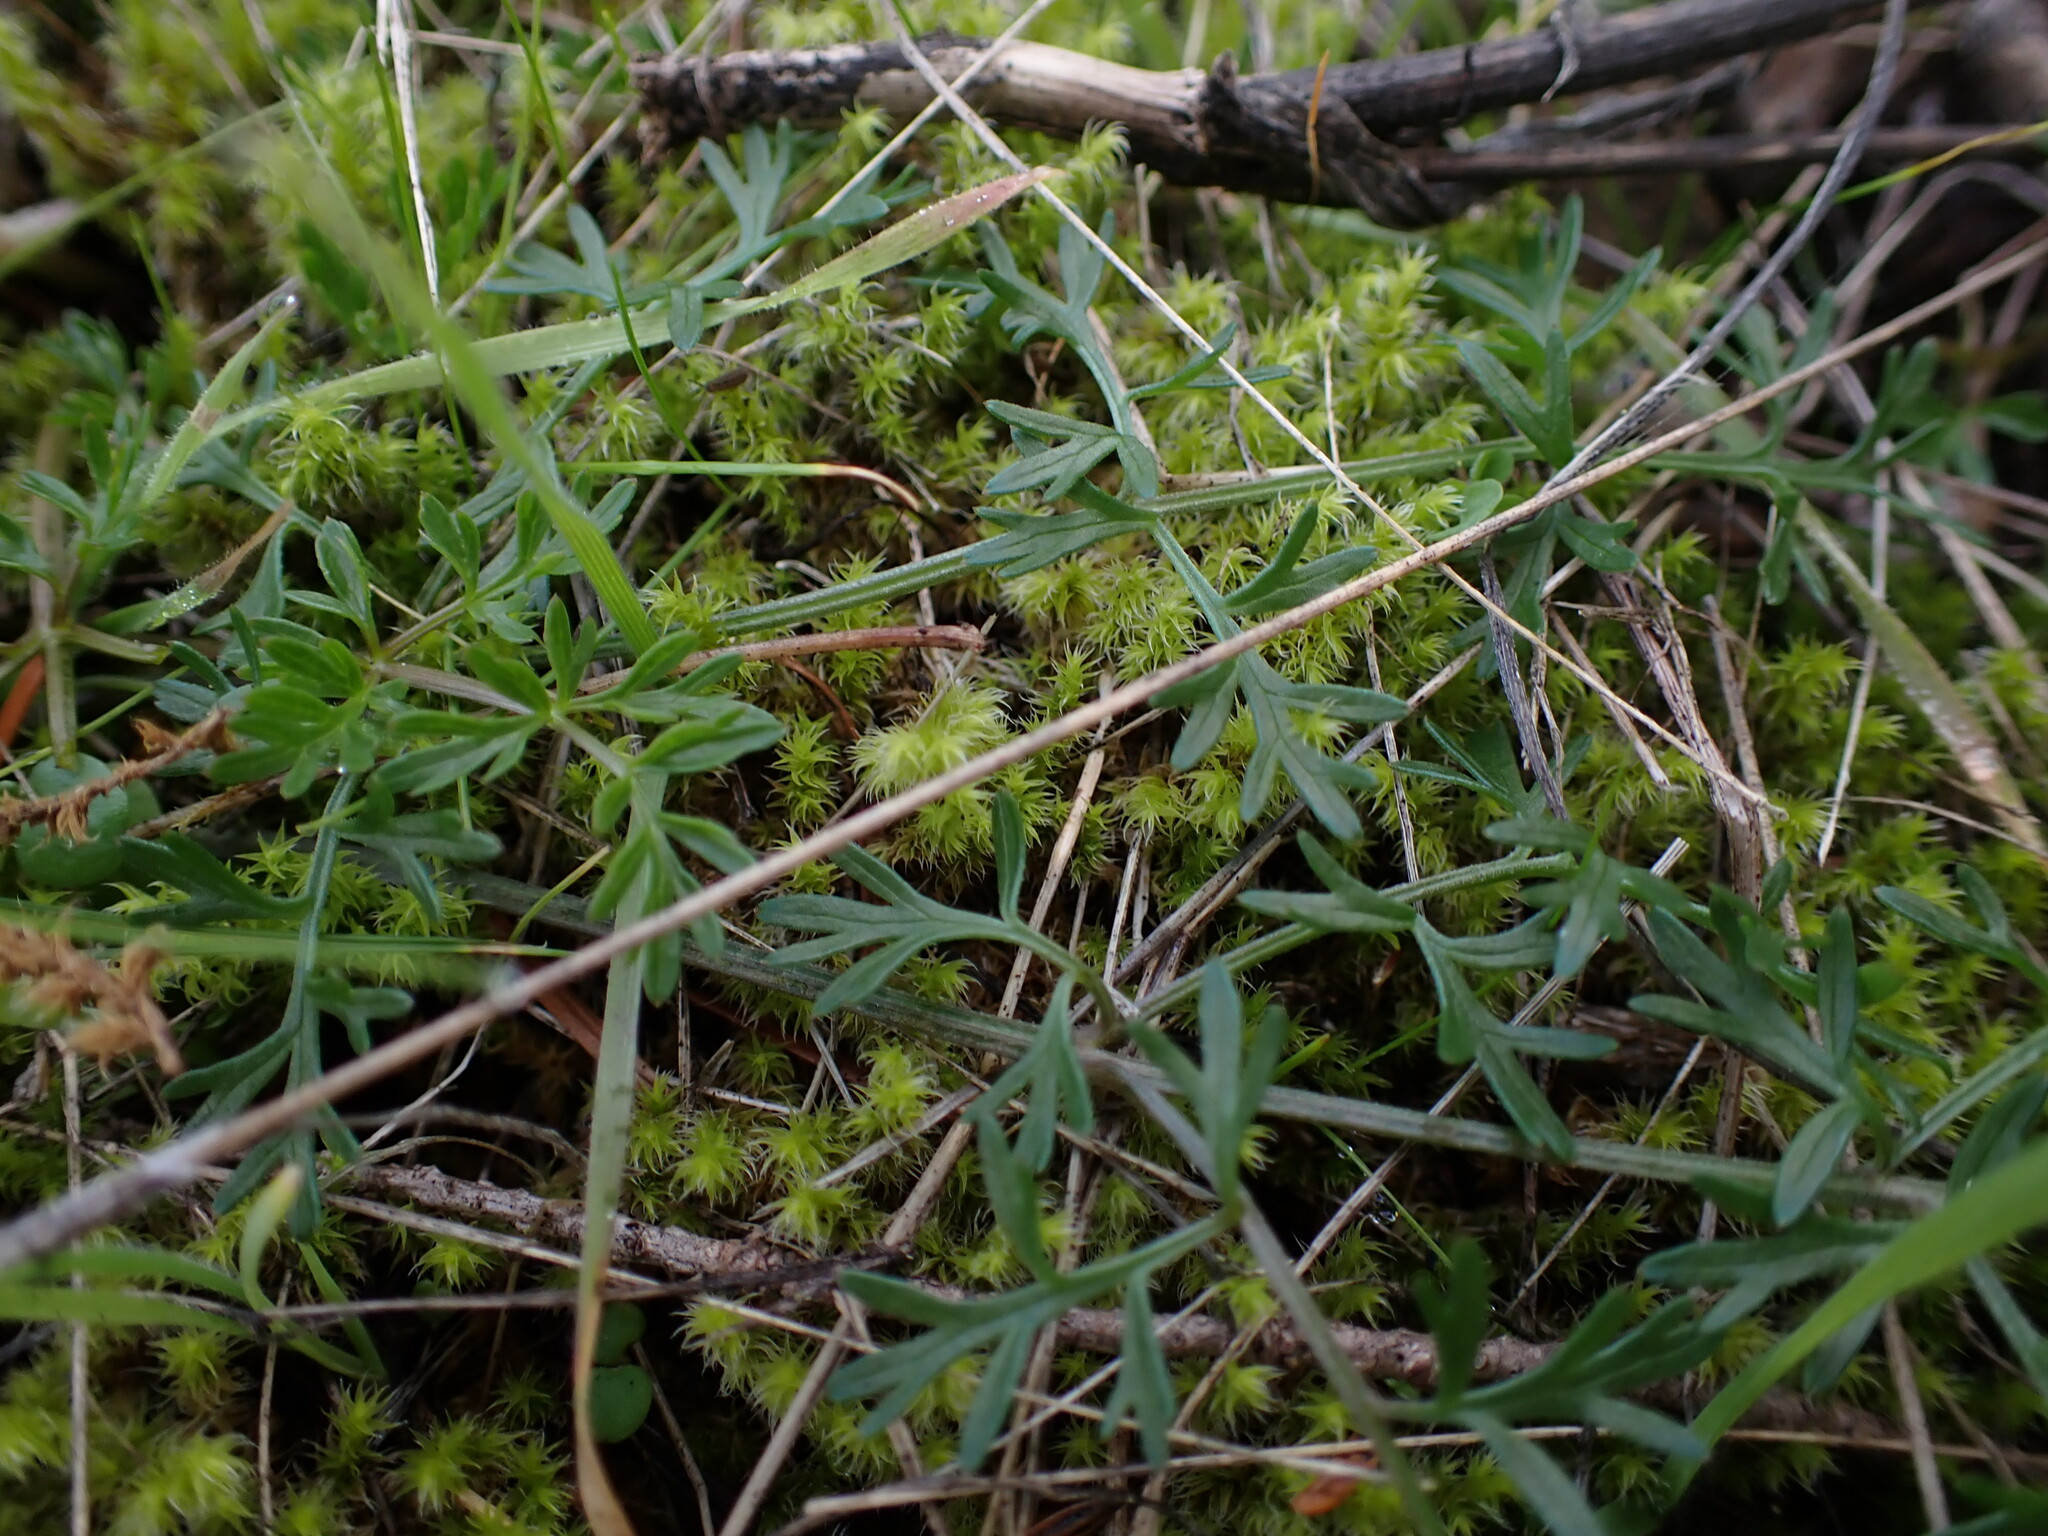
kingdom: Plantae
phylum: Tracheophyta
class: Magnoliopsida
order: Apiales
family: Apiaceae
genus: Lomatium
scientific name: Lomatium utriculatum
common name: Fine-leaf desert-parsley
